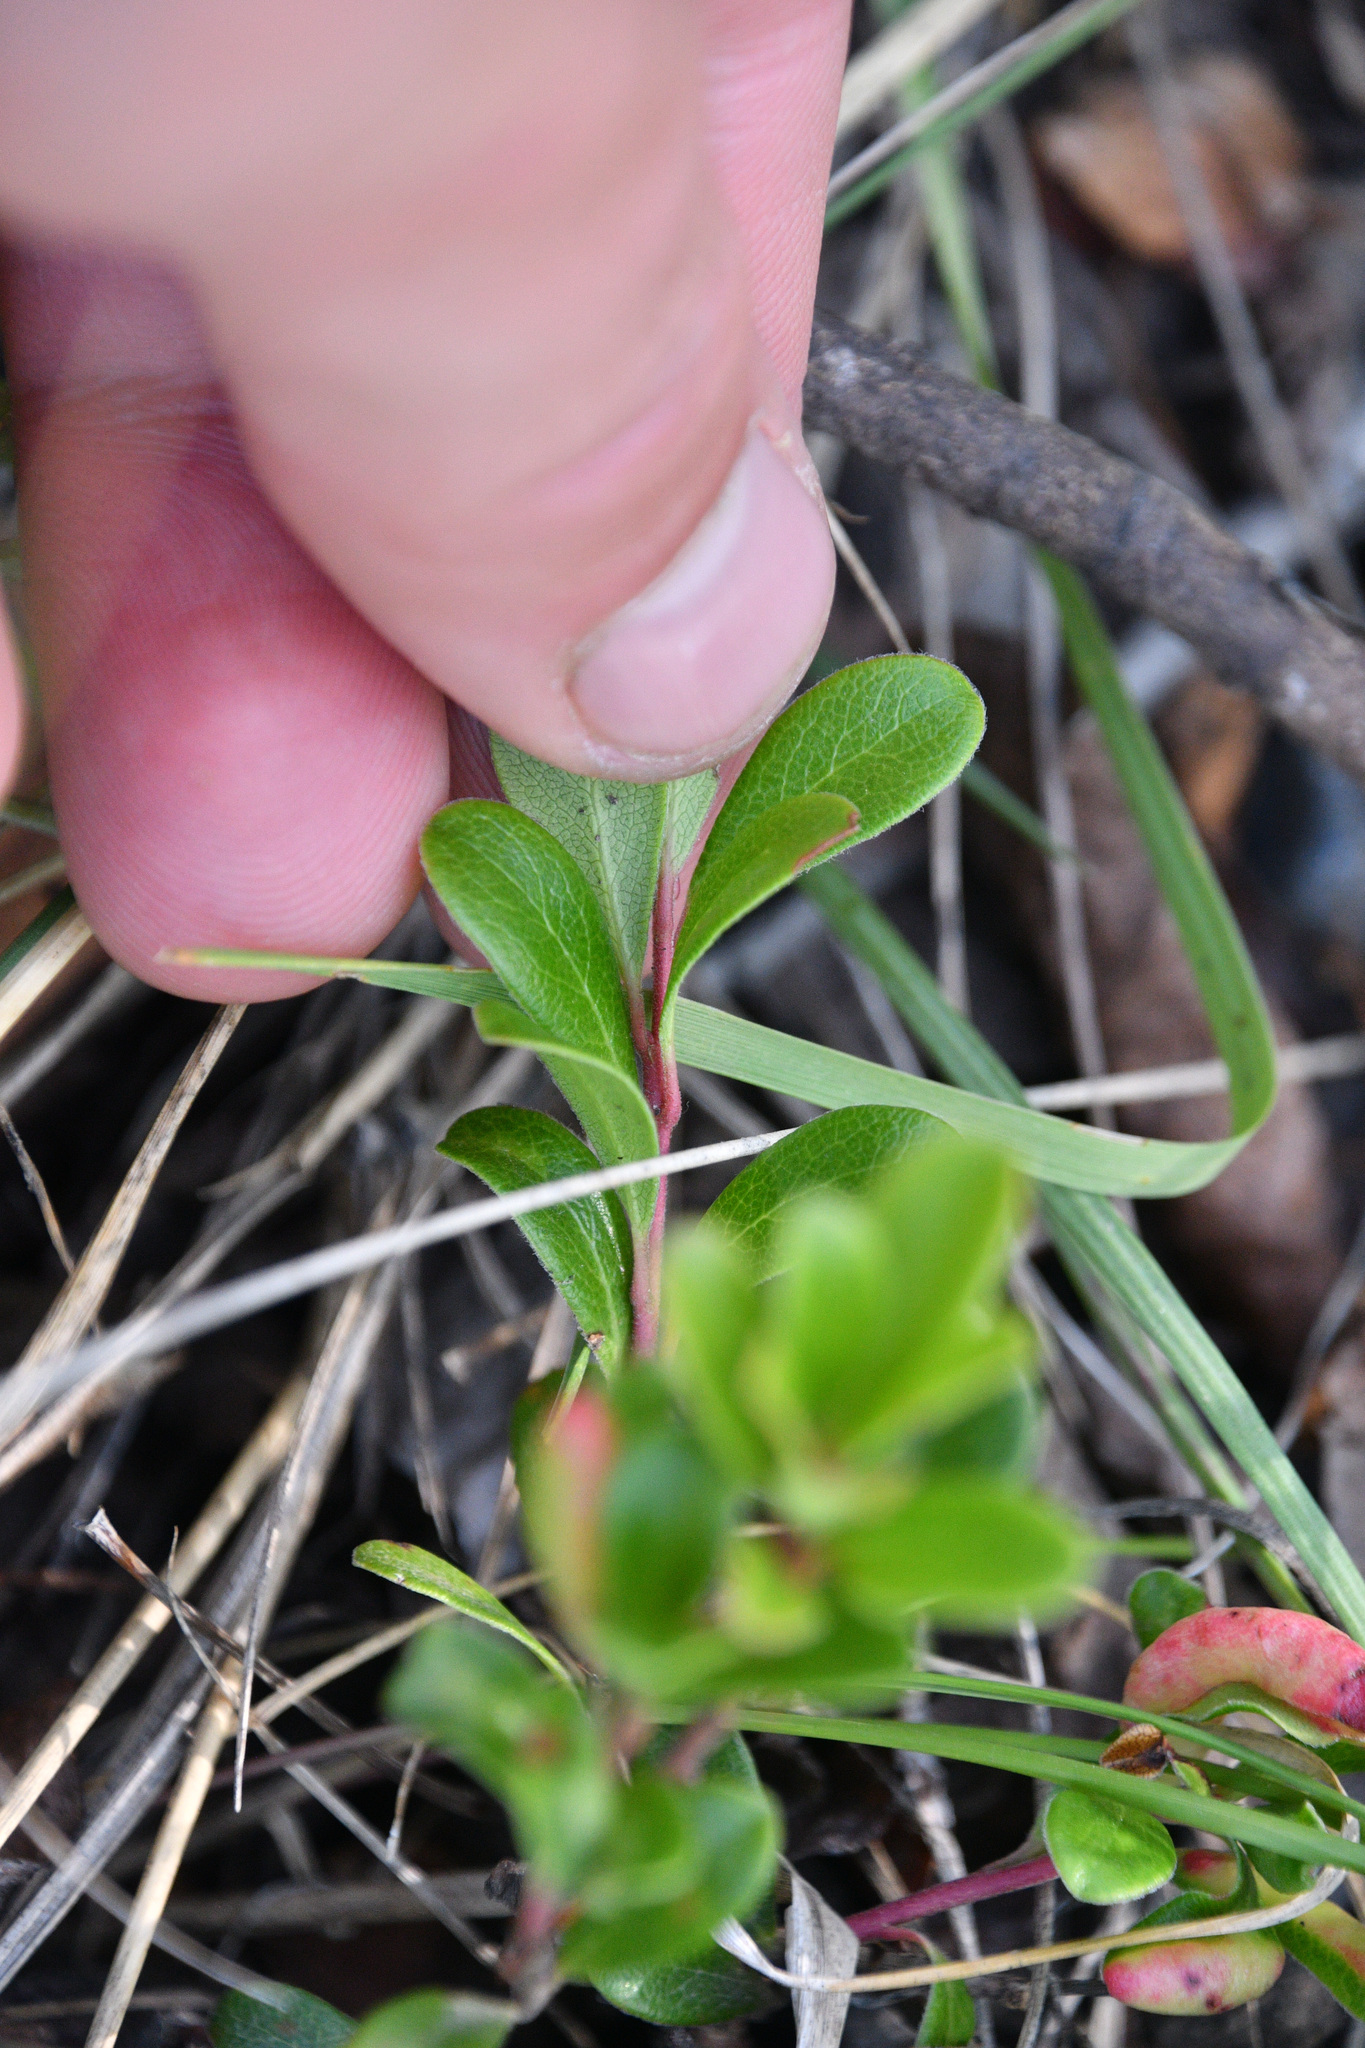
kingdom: Plantae
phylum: Tracheophyta
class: Magnoliopsida
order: Ericales
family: Ericaceae
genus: Arctostaphylos
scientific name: Arctostaphylos uva-ursi
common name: Bearberry
